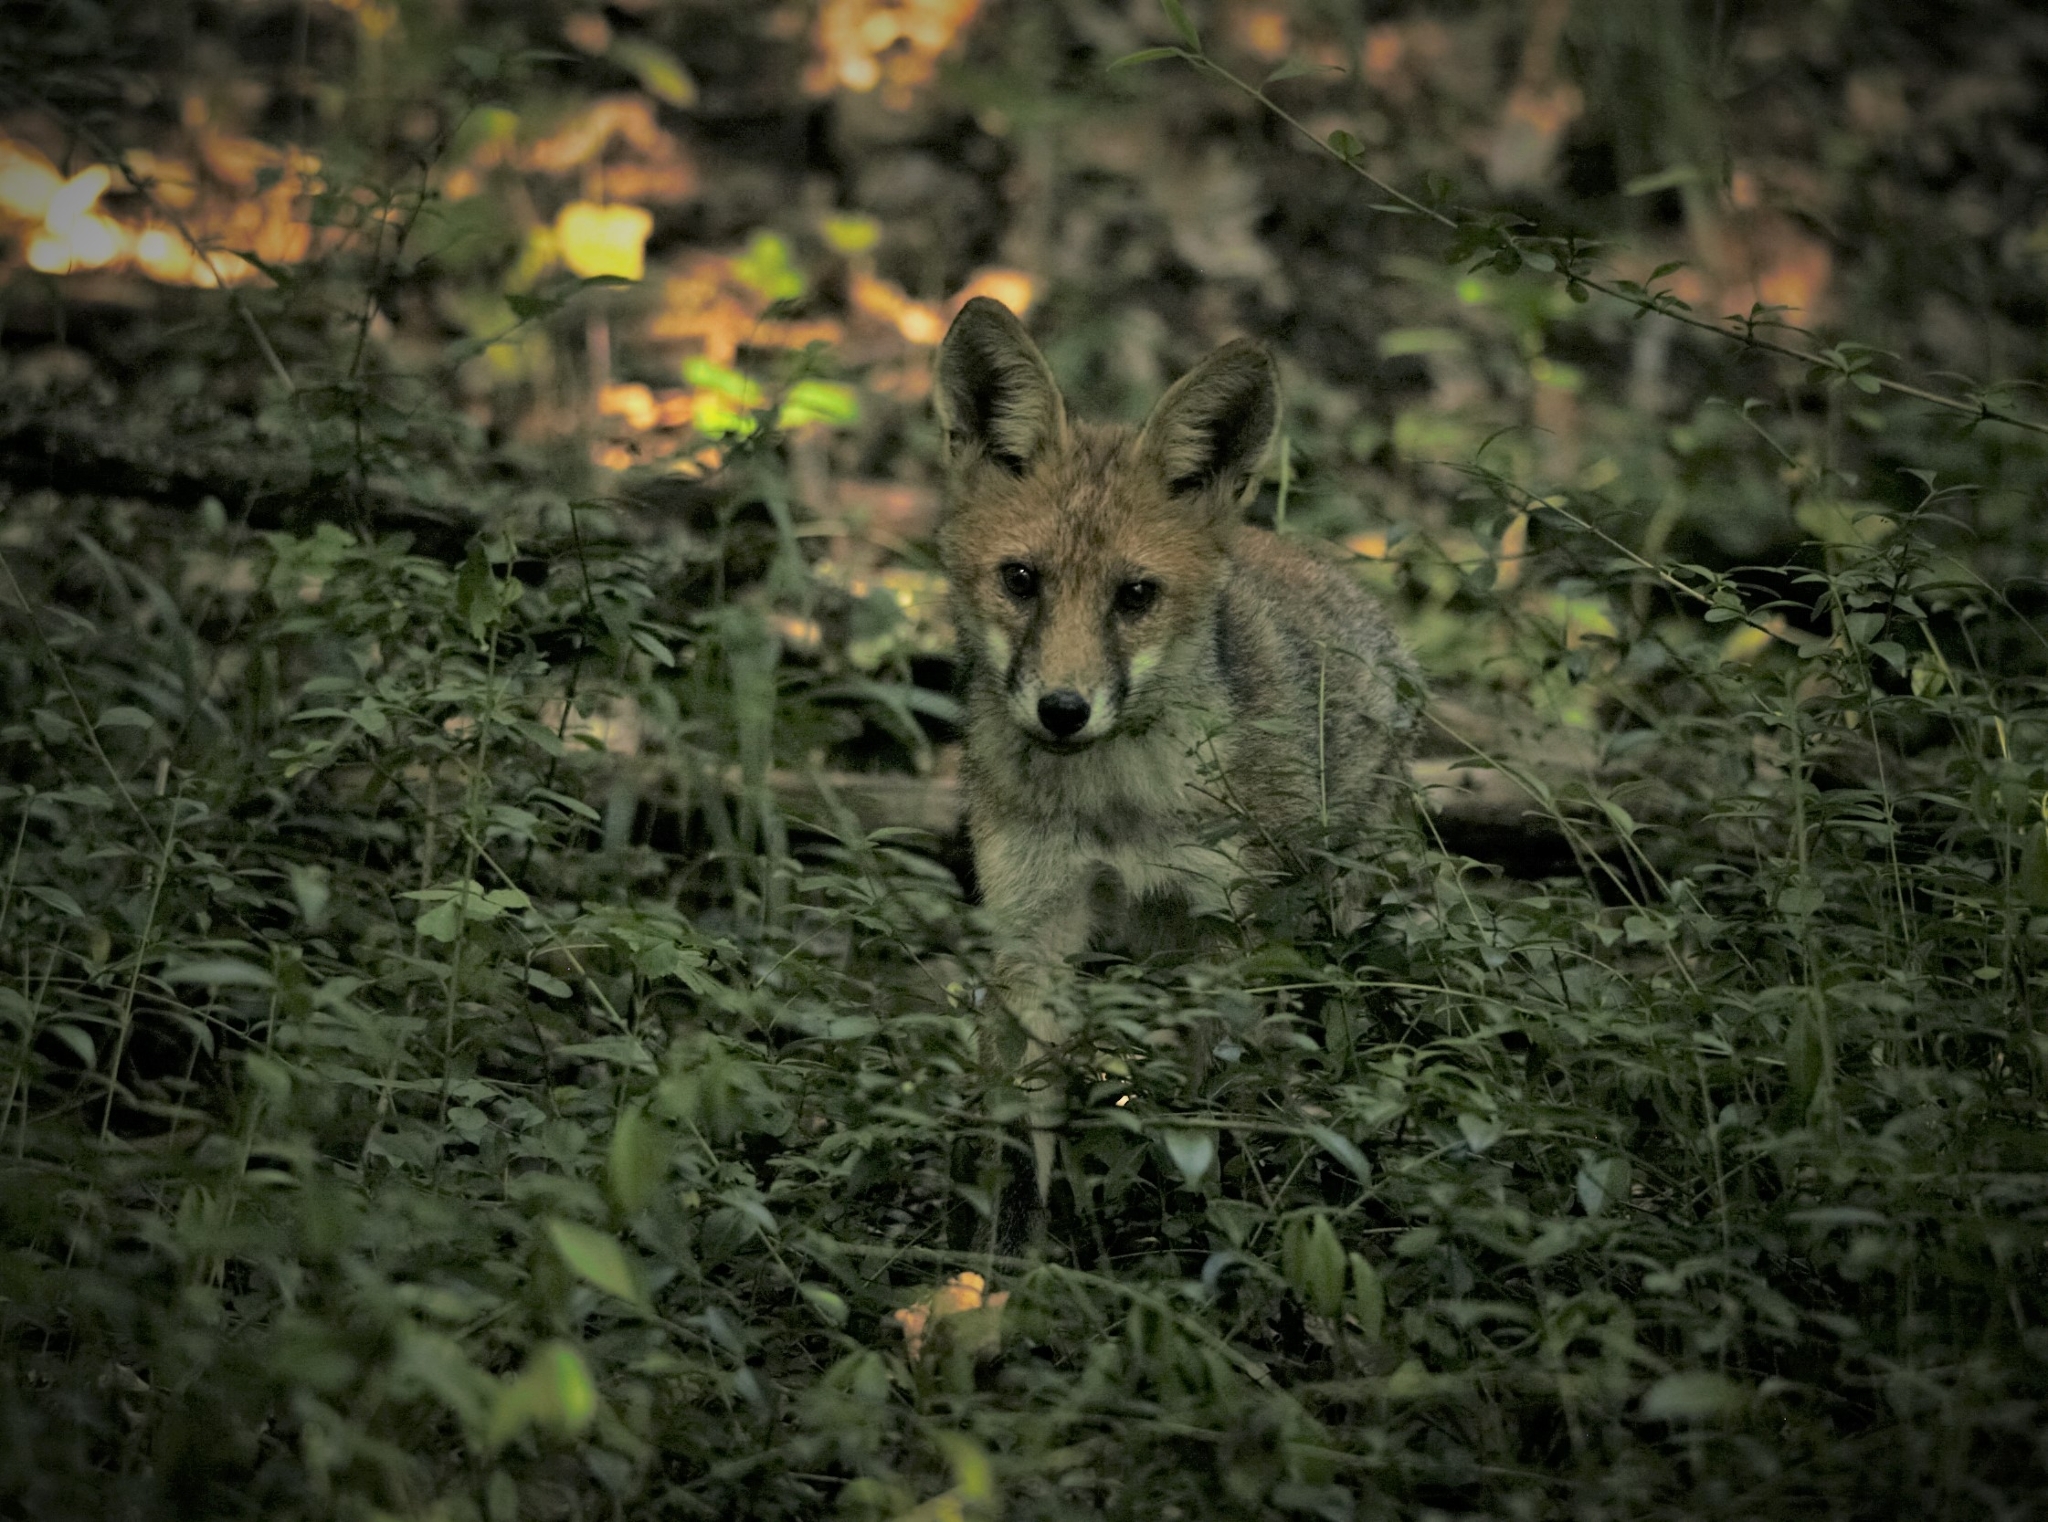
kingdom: Animalia
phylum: Chordata
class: Mammalia
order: Carnivora
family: Canidae
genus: Vulpes
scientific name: Vulpes vulpes
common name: Red fox
